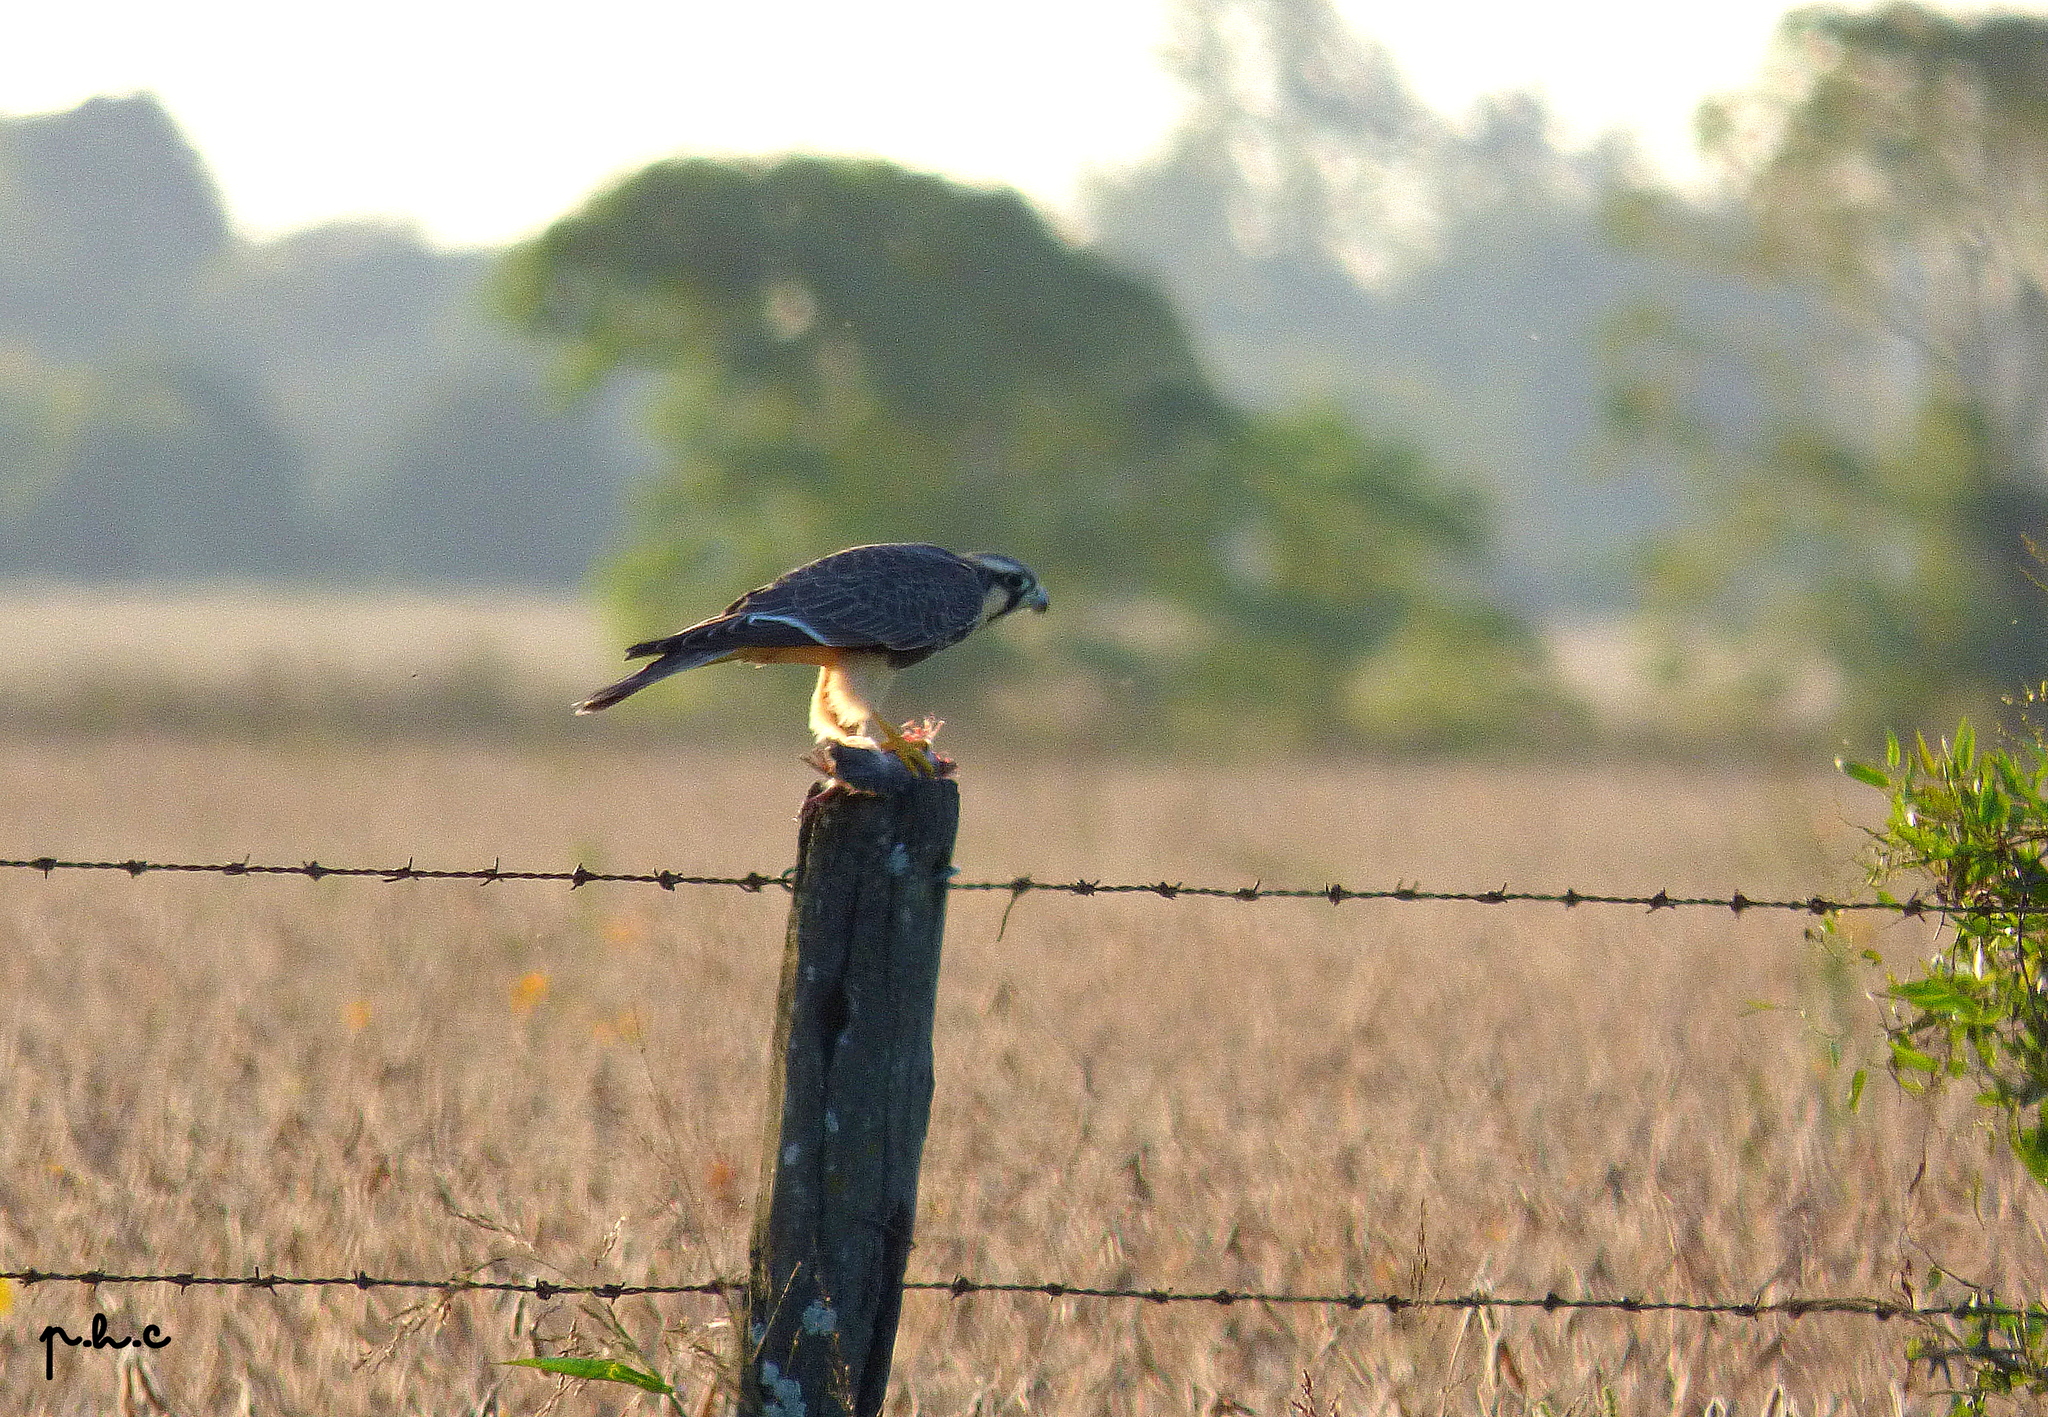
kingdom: Animalia
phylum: Chordata
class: Aves
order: Falconiformes
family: Falconidae
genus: Falco
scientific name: Falco femoralis
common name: Aplomado falcon
